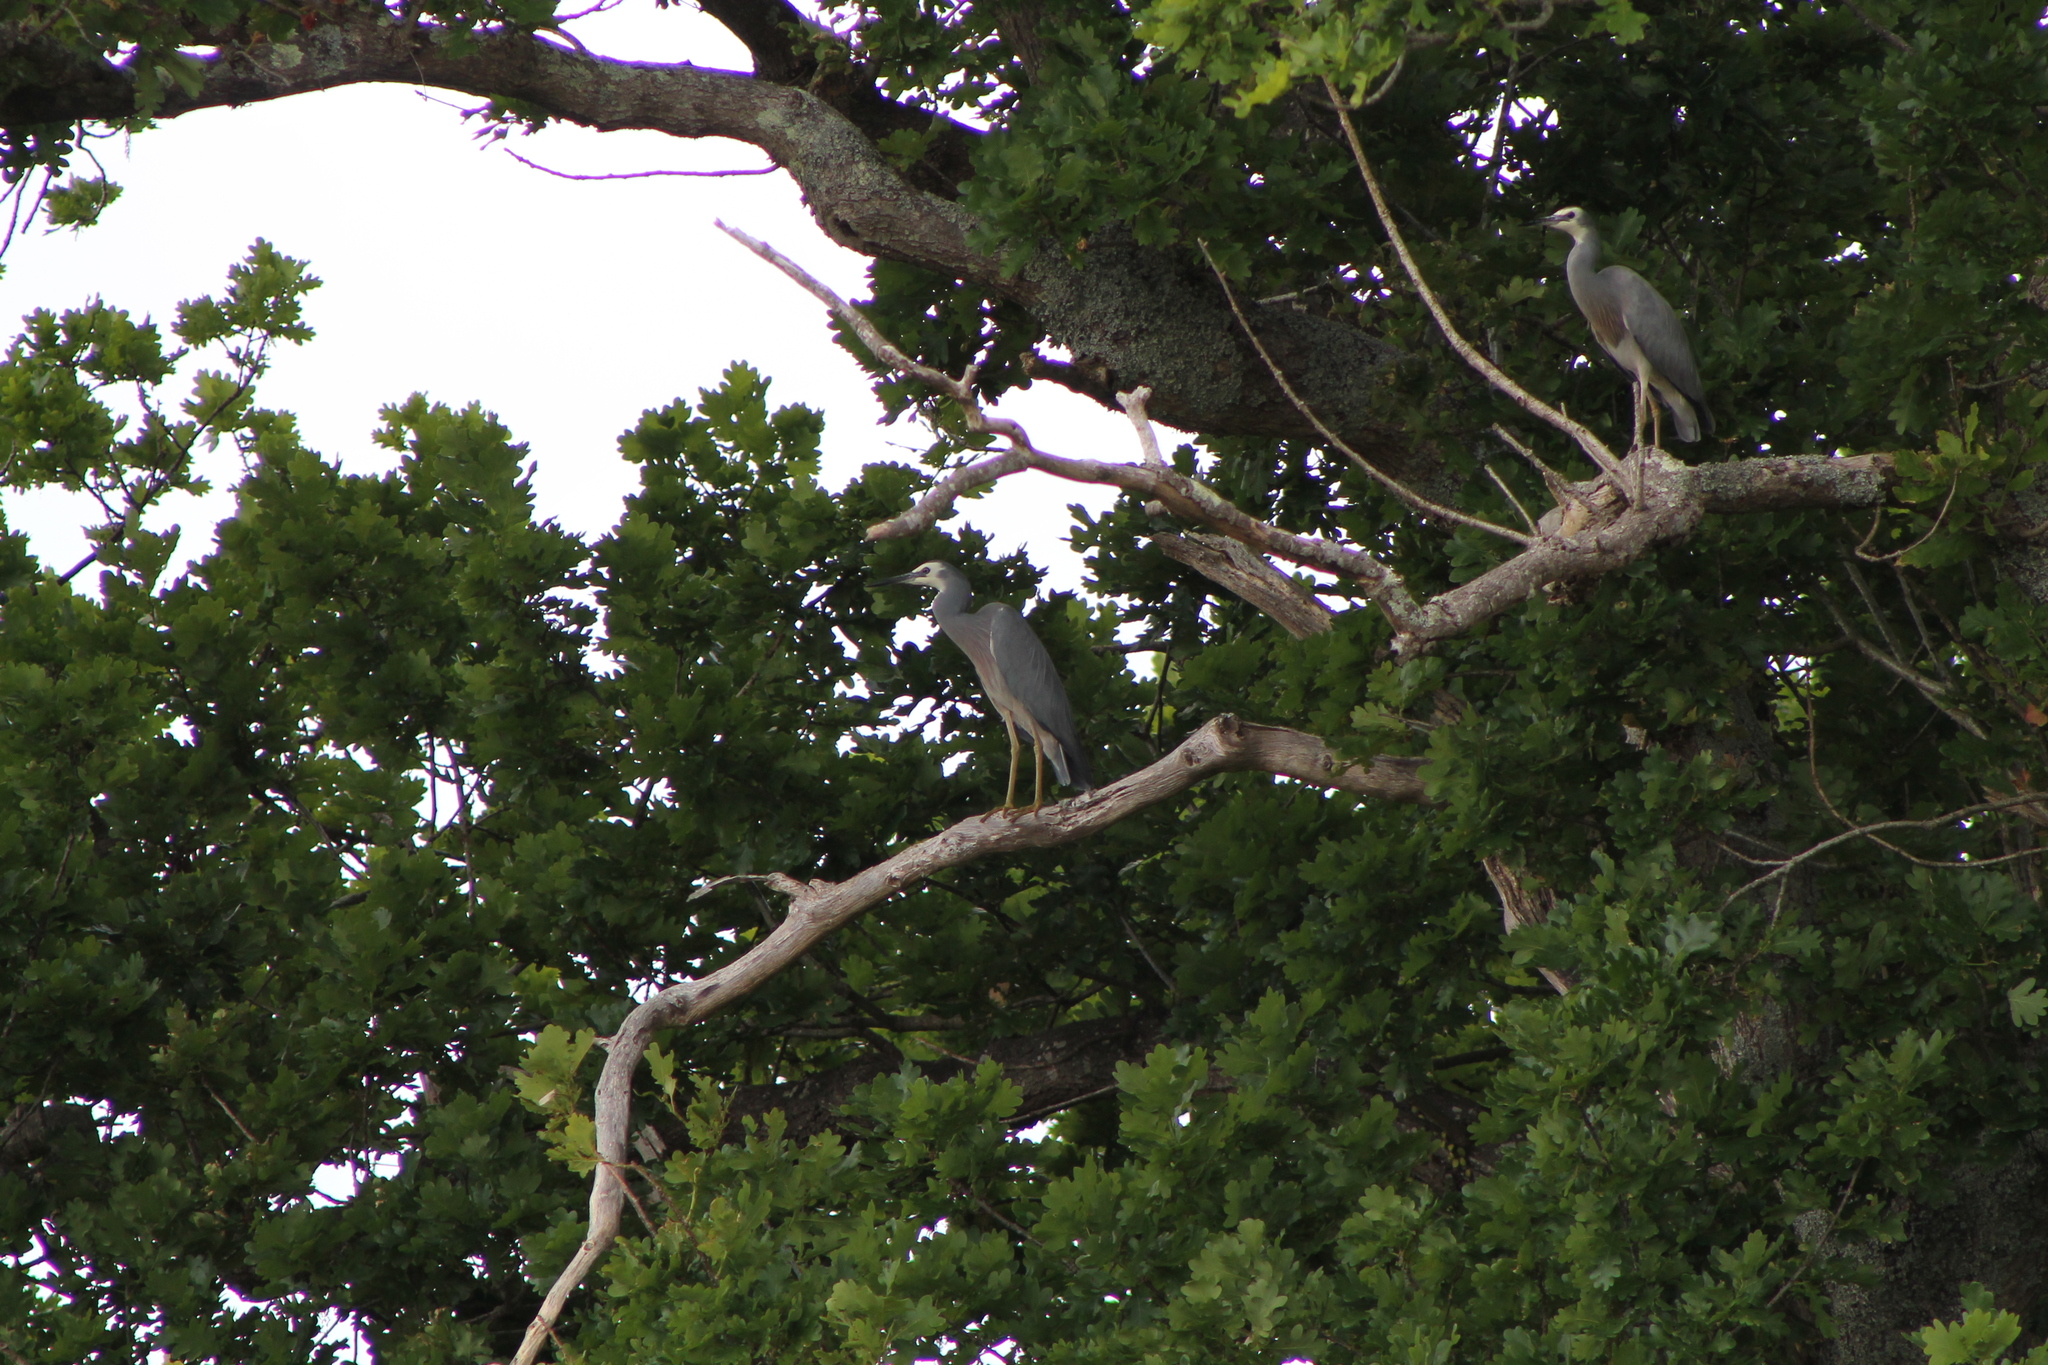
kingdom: Animalia
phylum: Chordata
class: Aves
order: Pelecaniformes
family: Ardeidae
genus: Egretta
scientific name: Egretta novaehollandiae
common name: White-faced heron
